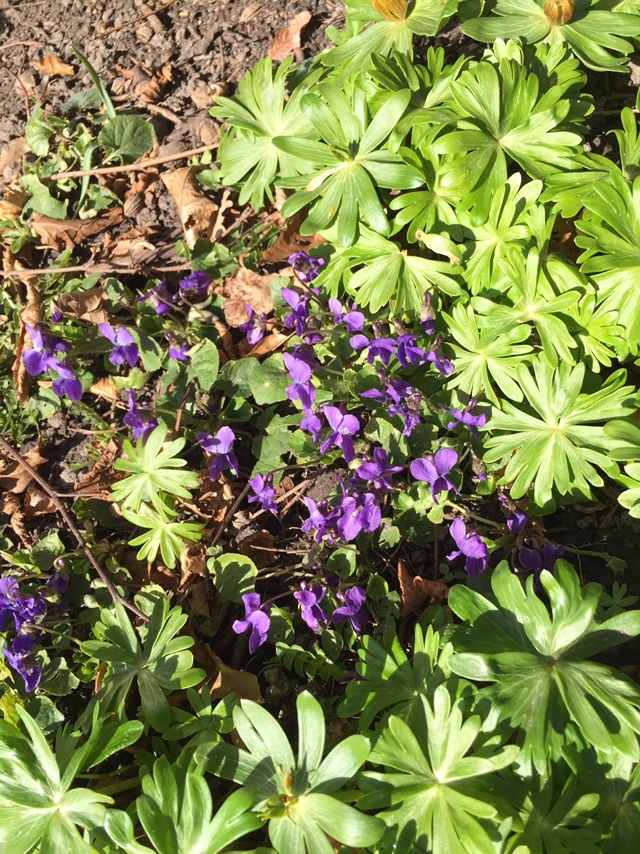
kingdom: Plantae
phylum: Tracheophyta
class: Magnoliopsida
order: Malpighiales
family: Violaceae
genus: Viola
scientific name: Viola odorata
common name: Sweet violet
